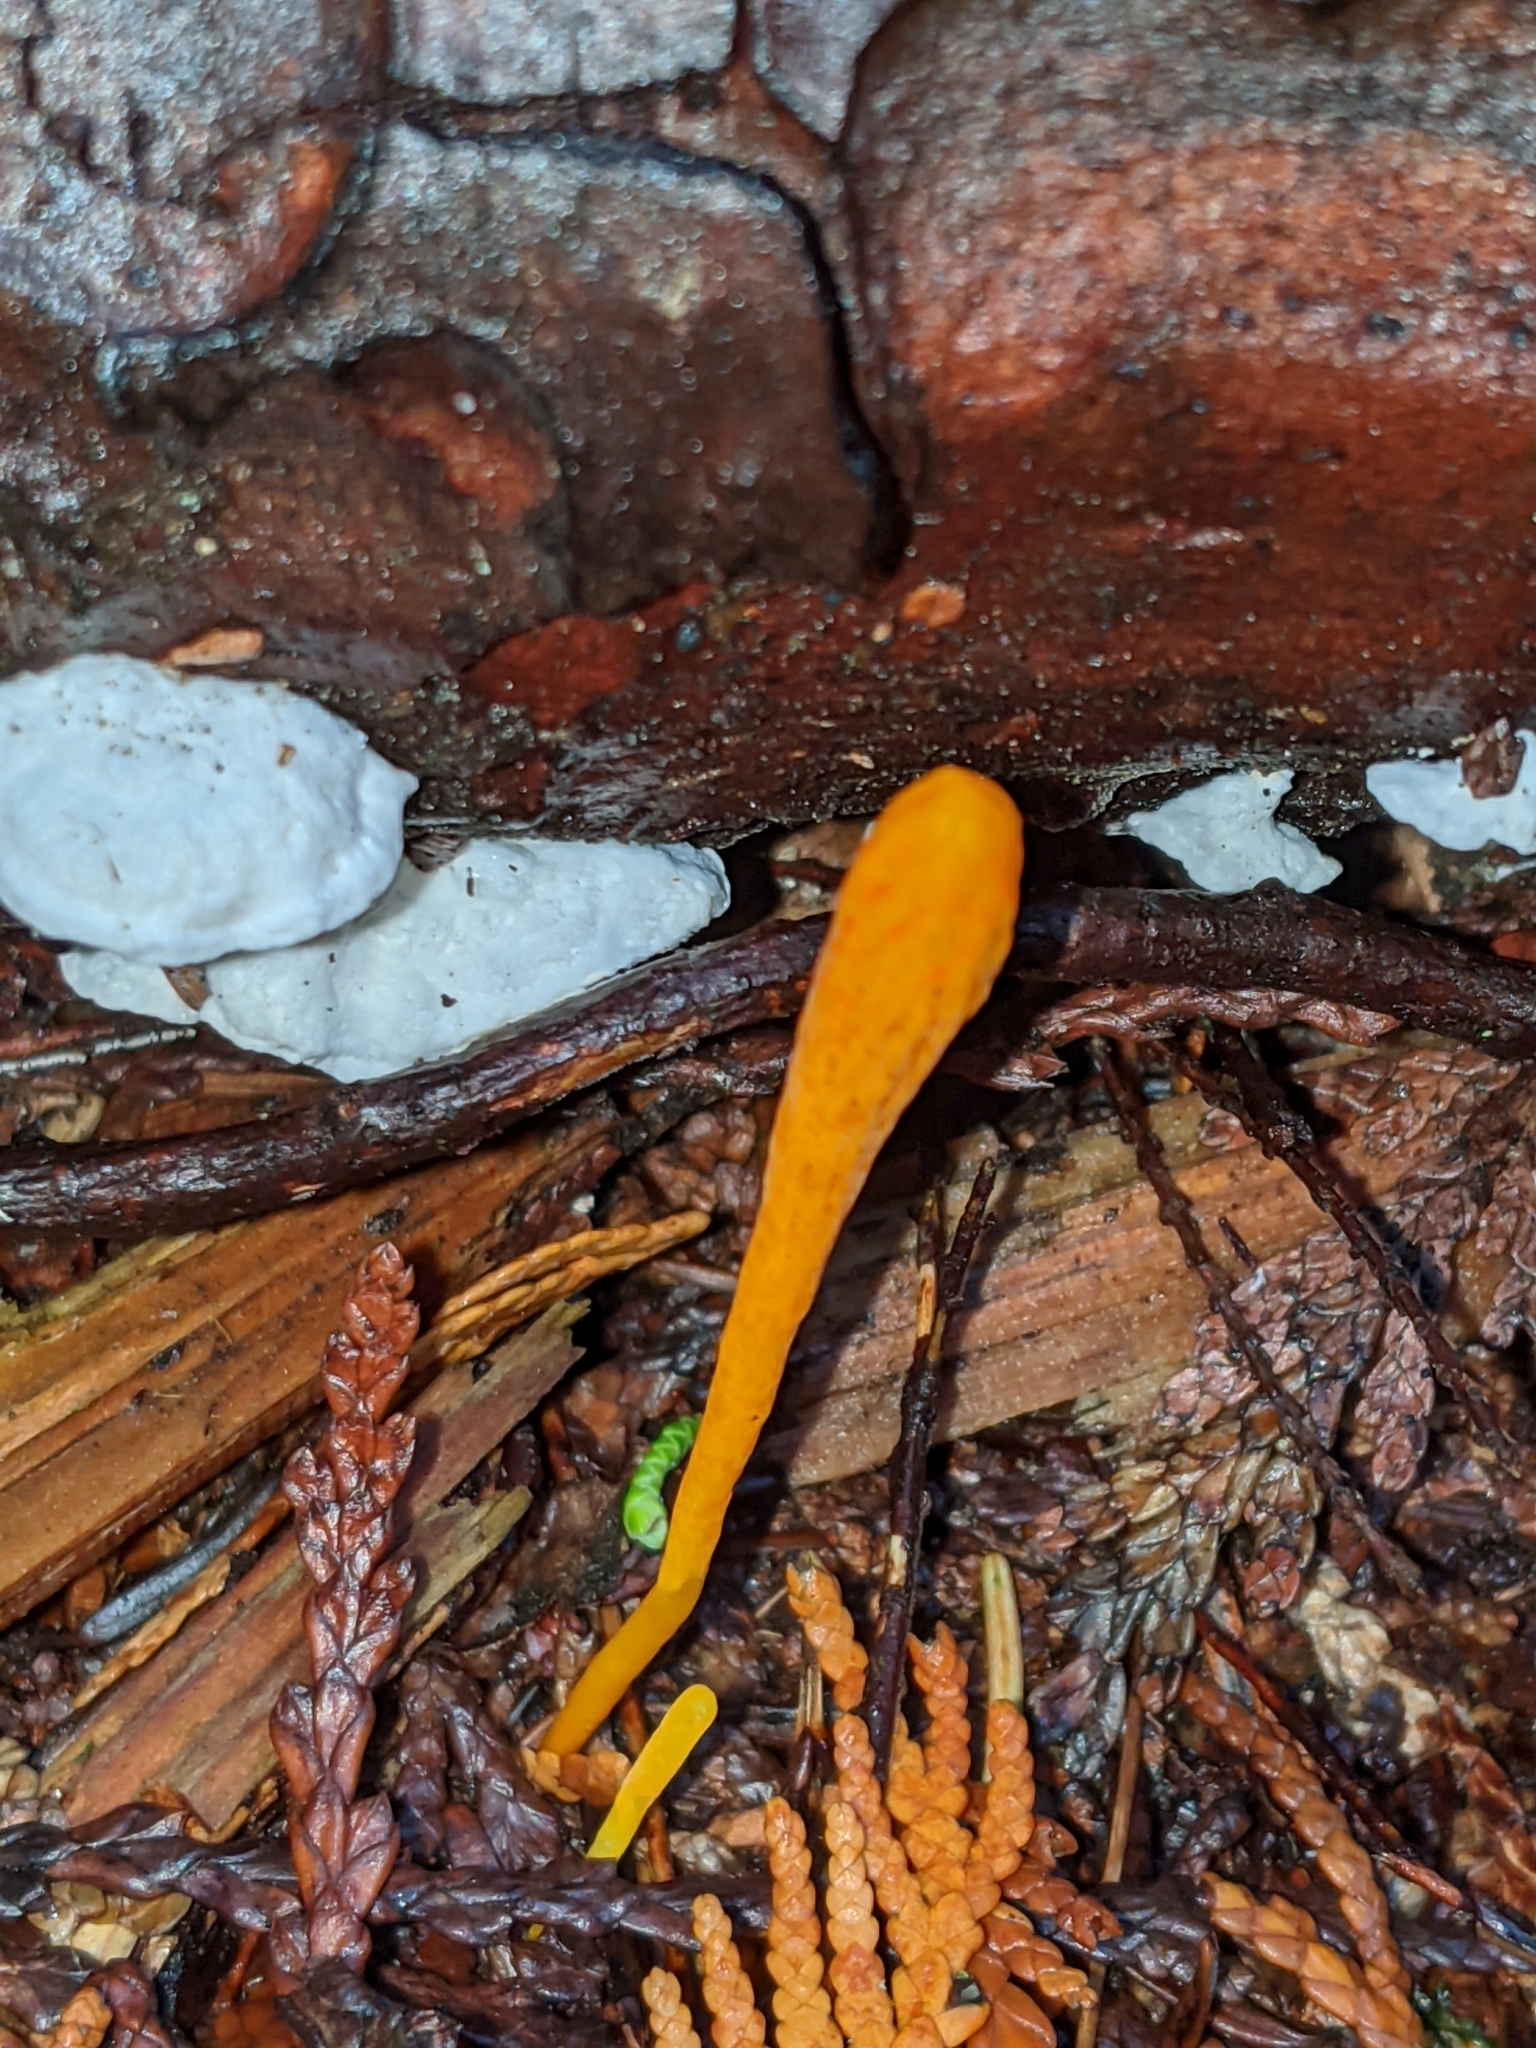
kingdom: Fungi
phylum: Basidiomycota
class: Agaricomycetes
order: Agaricales
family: Clavariaceae
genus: Clavulinopsis
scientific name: Clavulinopsis laeticolor
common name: Handsome club
